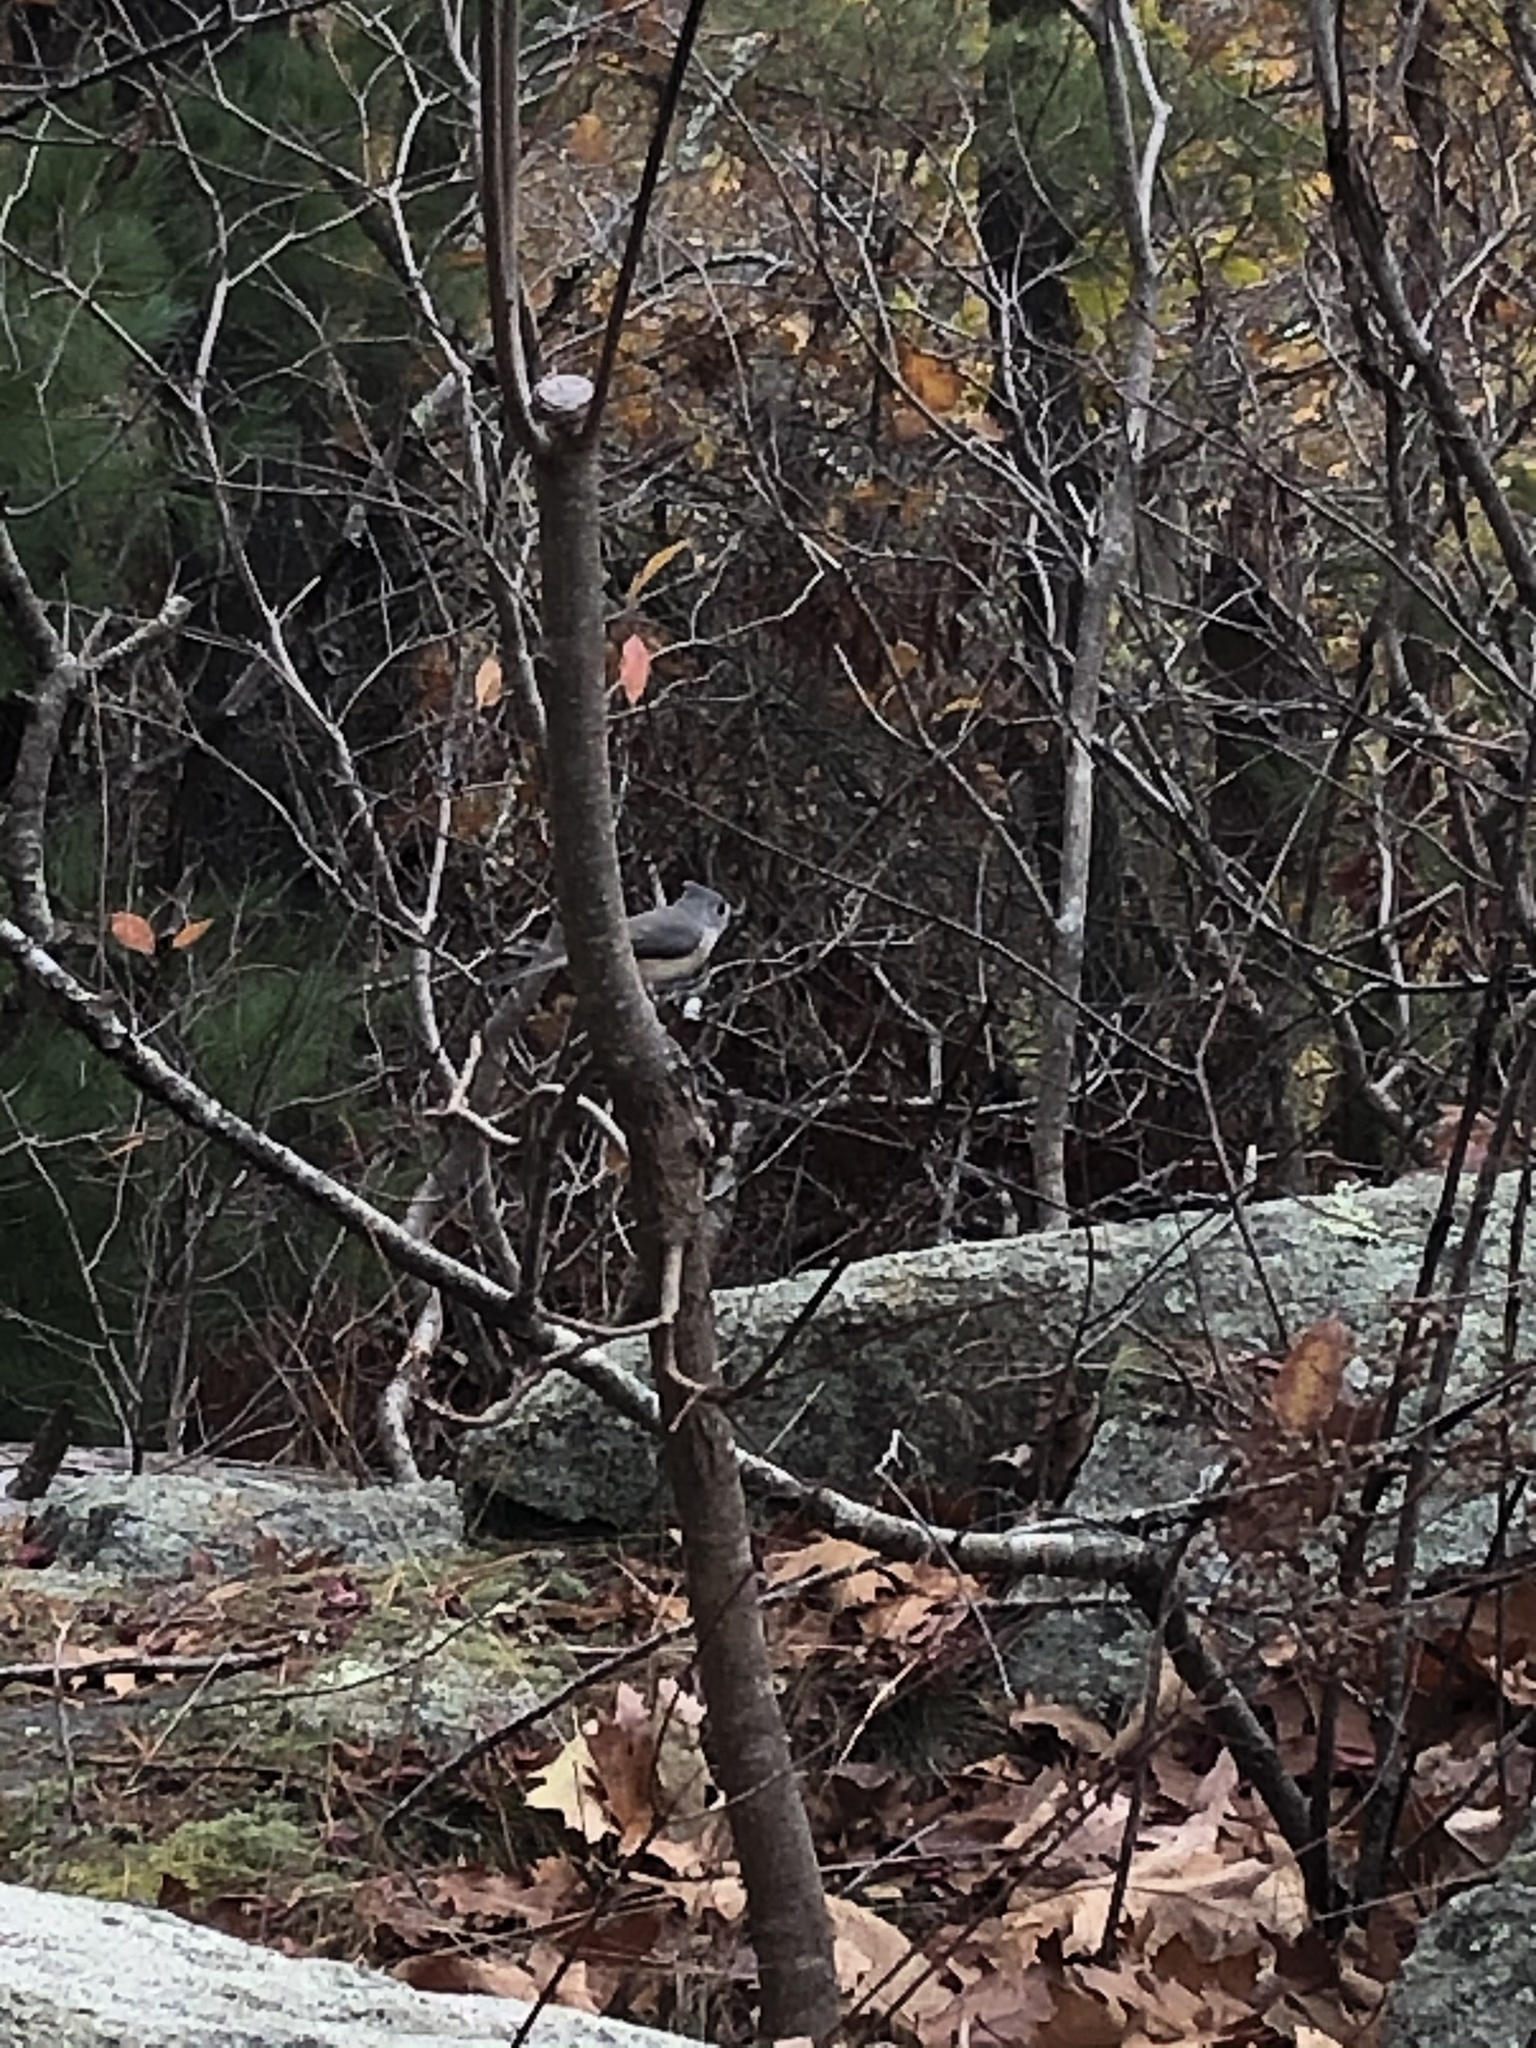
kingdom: Animalia
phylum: Chordata
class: Aves
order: Passeriformes
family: Paridae
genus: Baeolophus
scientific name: Baeolophus bicolor
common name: Tufted titmouse
